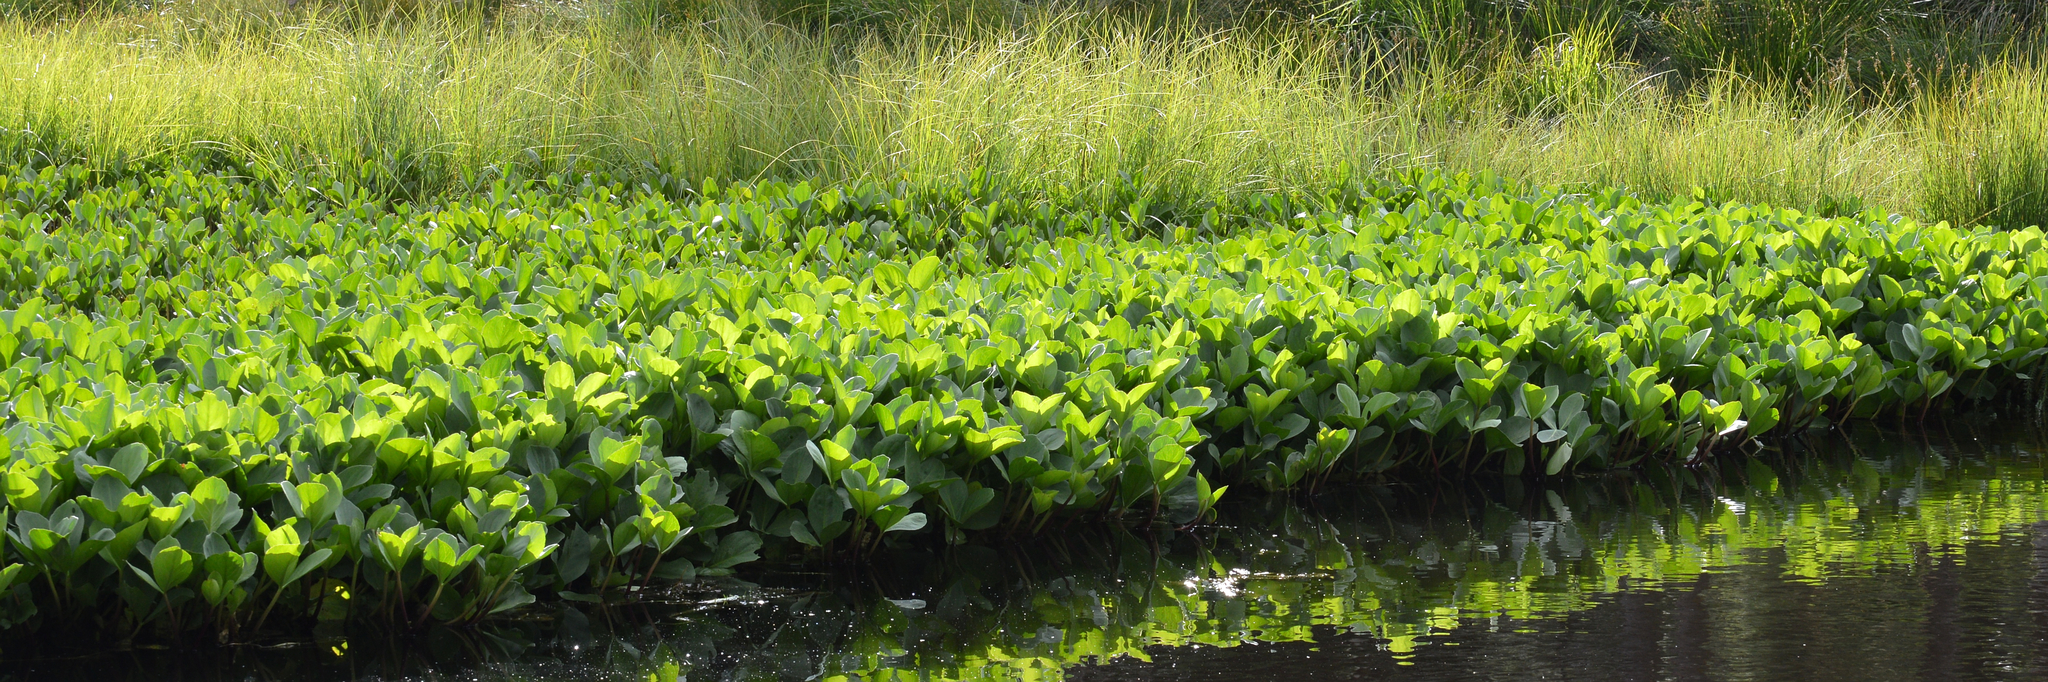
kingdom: Plantae
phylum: Tracheophyta
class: Magnoliopsida
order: Asterales
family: Menyanthaceae
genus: Menyanthes
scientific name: Menyanthes trifoliata
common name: Bogbean
